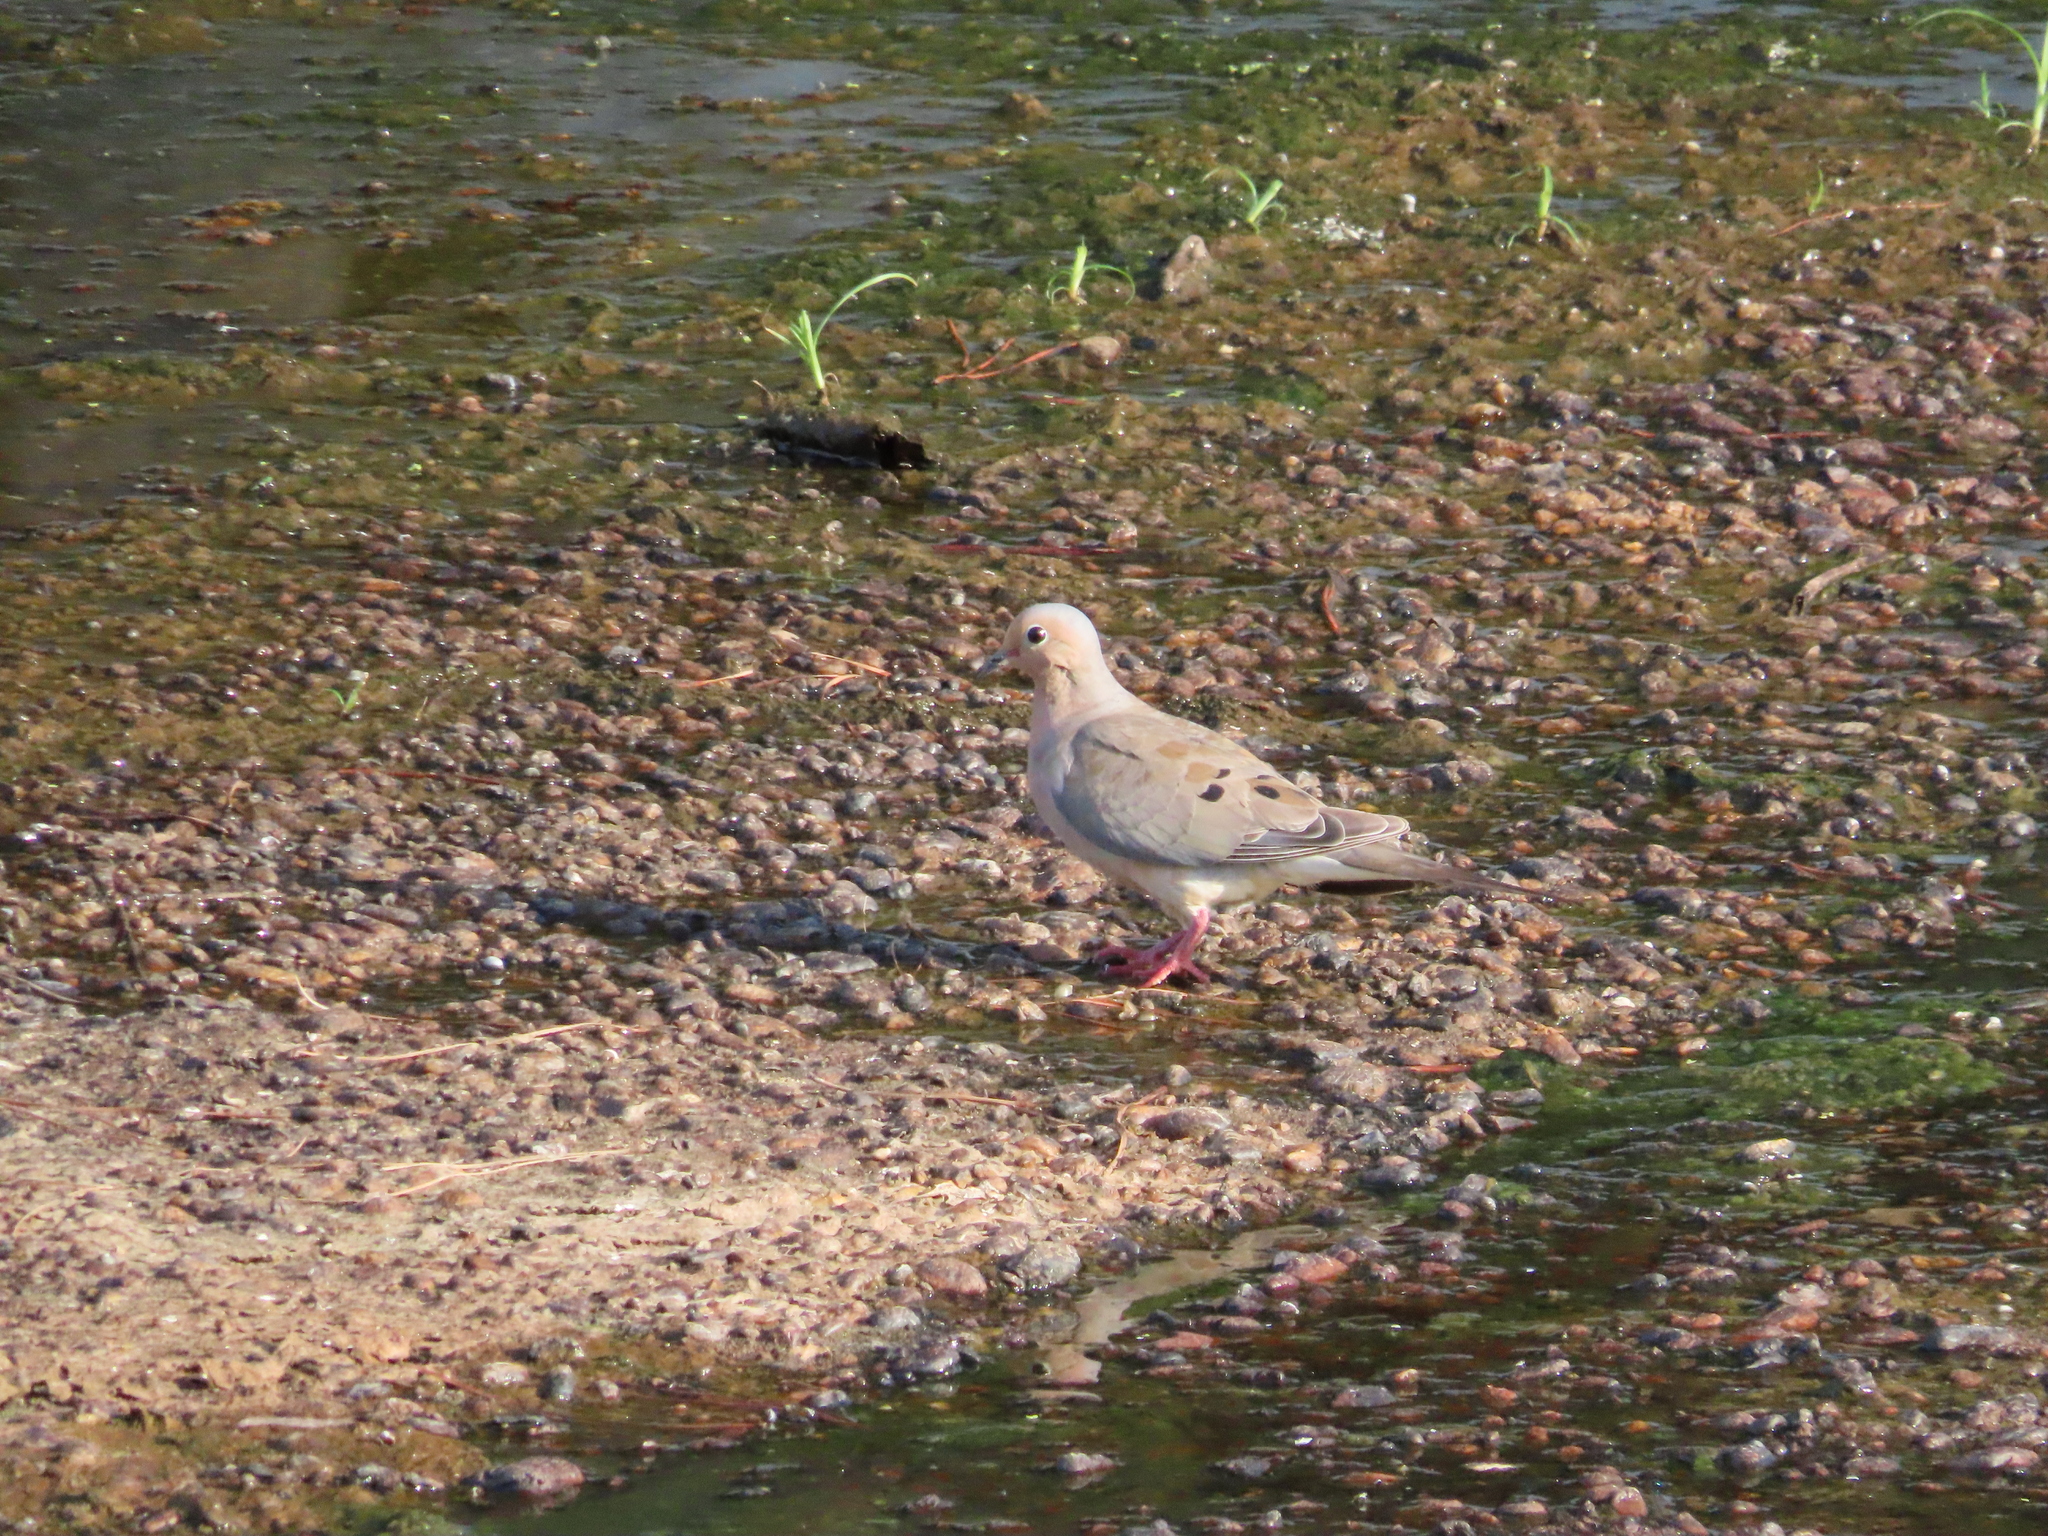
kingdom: Animalia
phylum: Chordata
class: Aves
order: Columbiformes
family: Columbidae
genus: Zenaida
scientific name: Zenaida macroura
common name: Mourning dove
